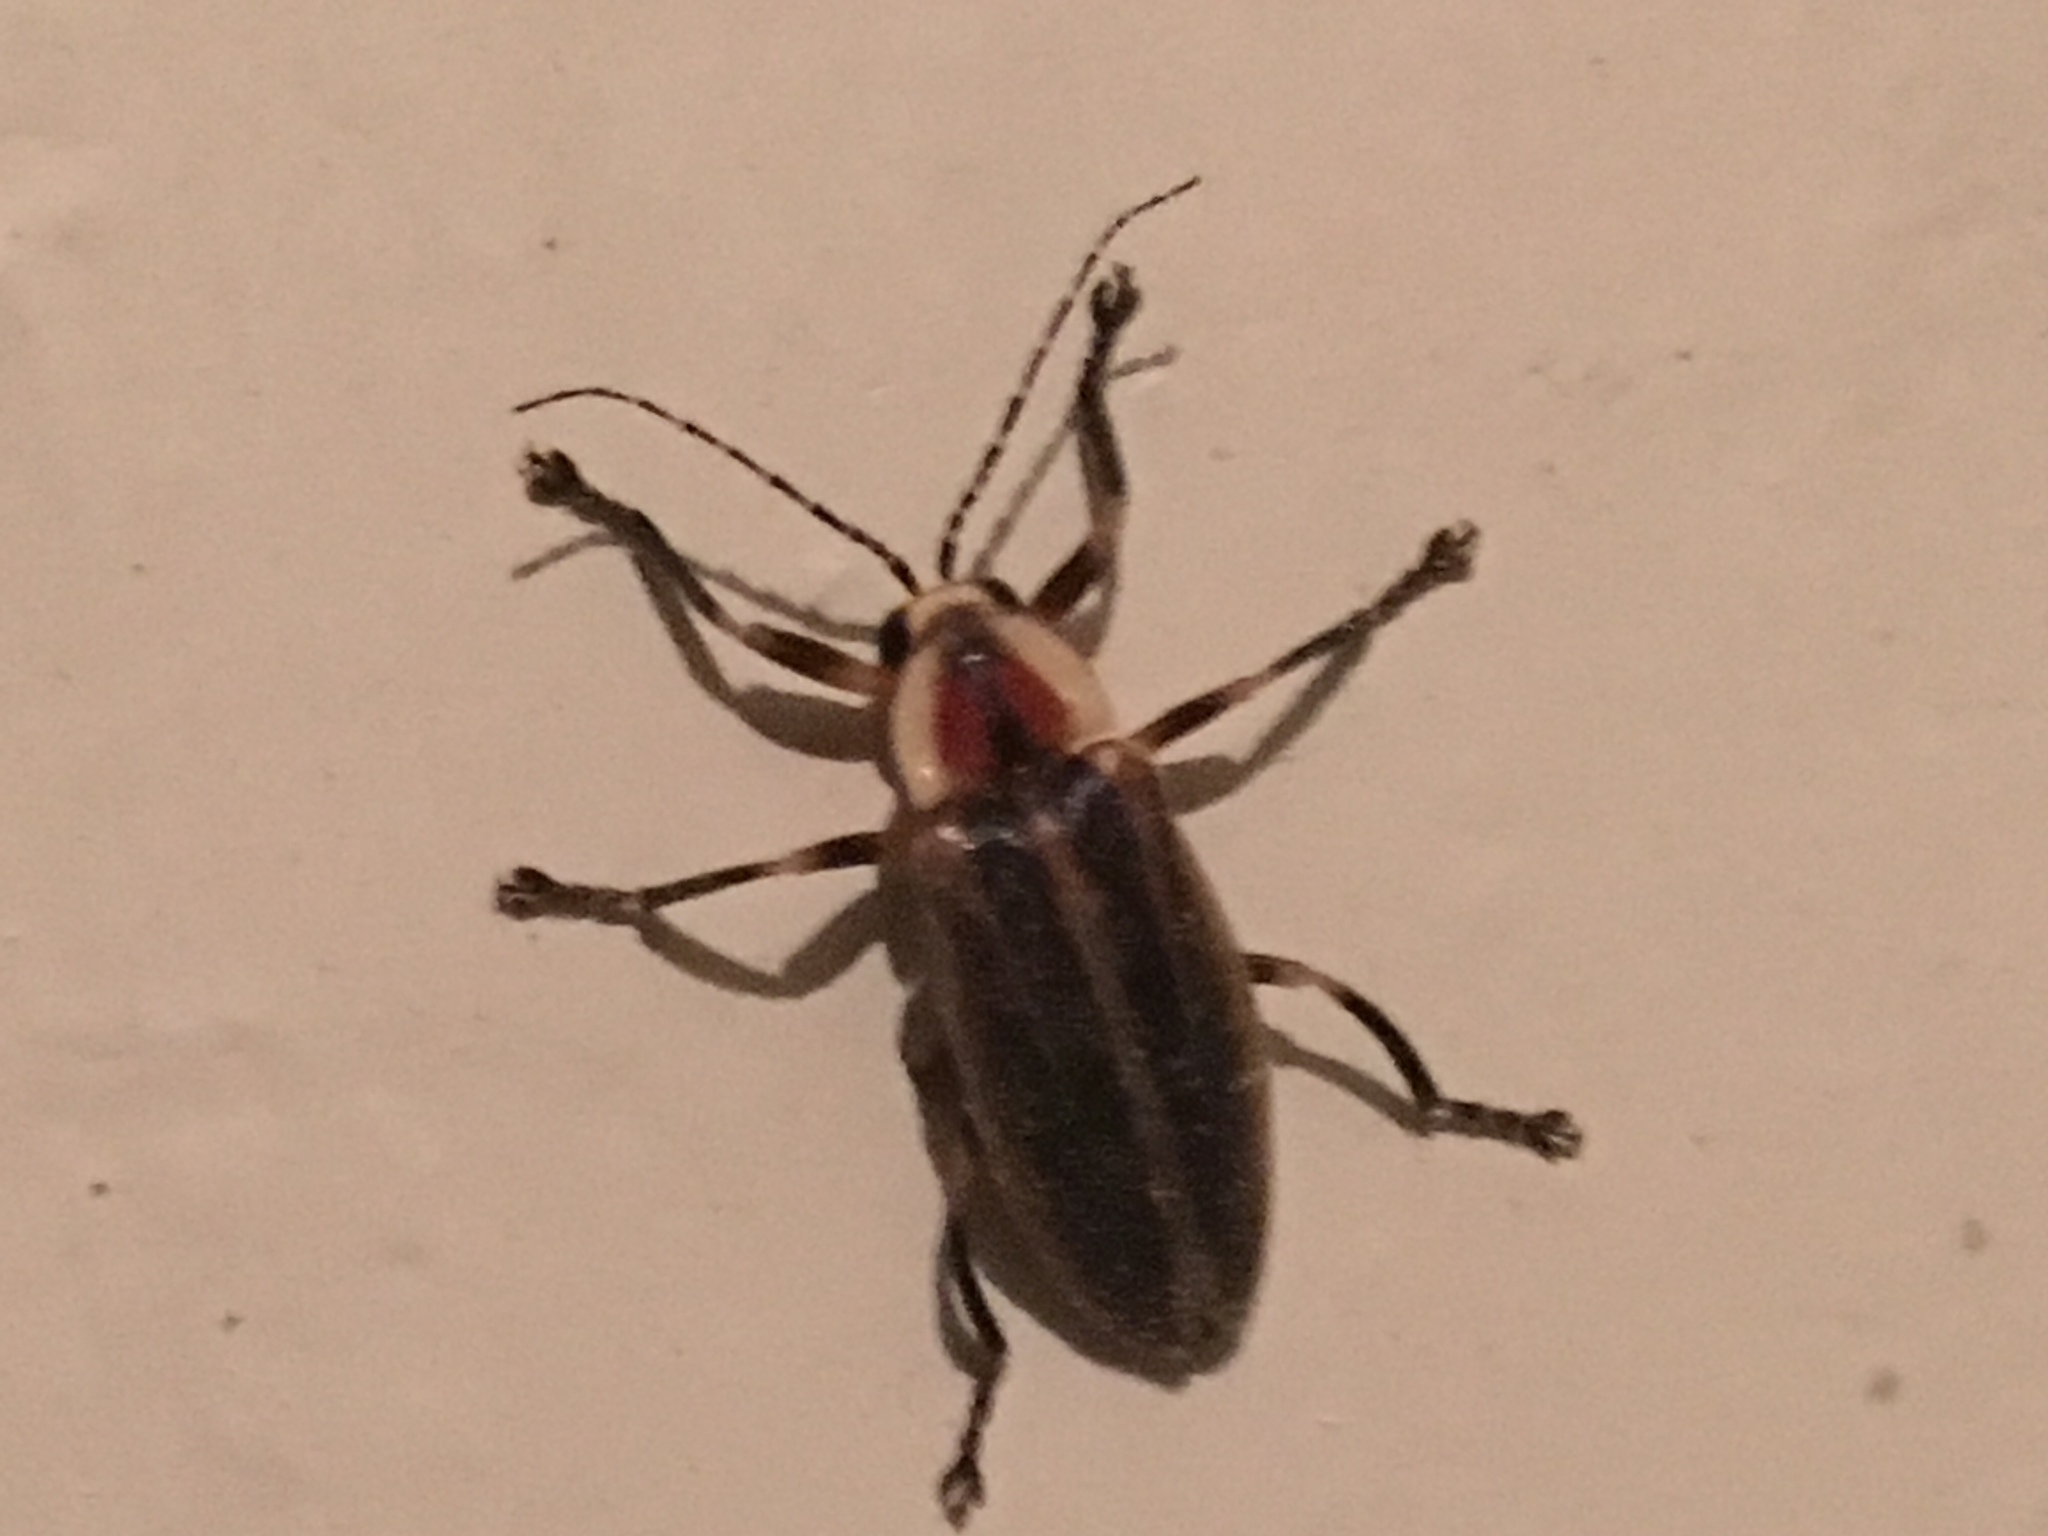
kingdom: Animalia
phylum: Arthropoda
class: Insecta
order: Coleoptera
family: Lampyridae
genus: Photuris
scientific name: Photuris
